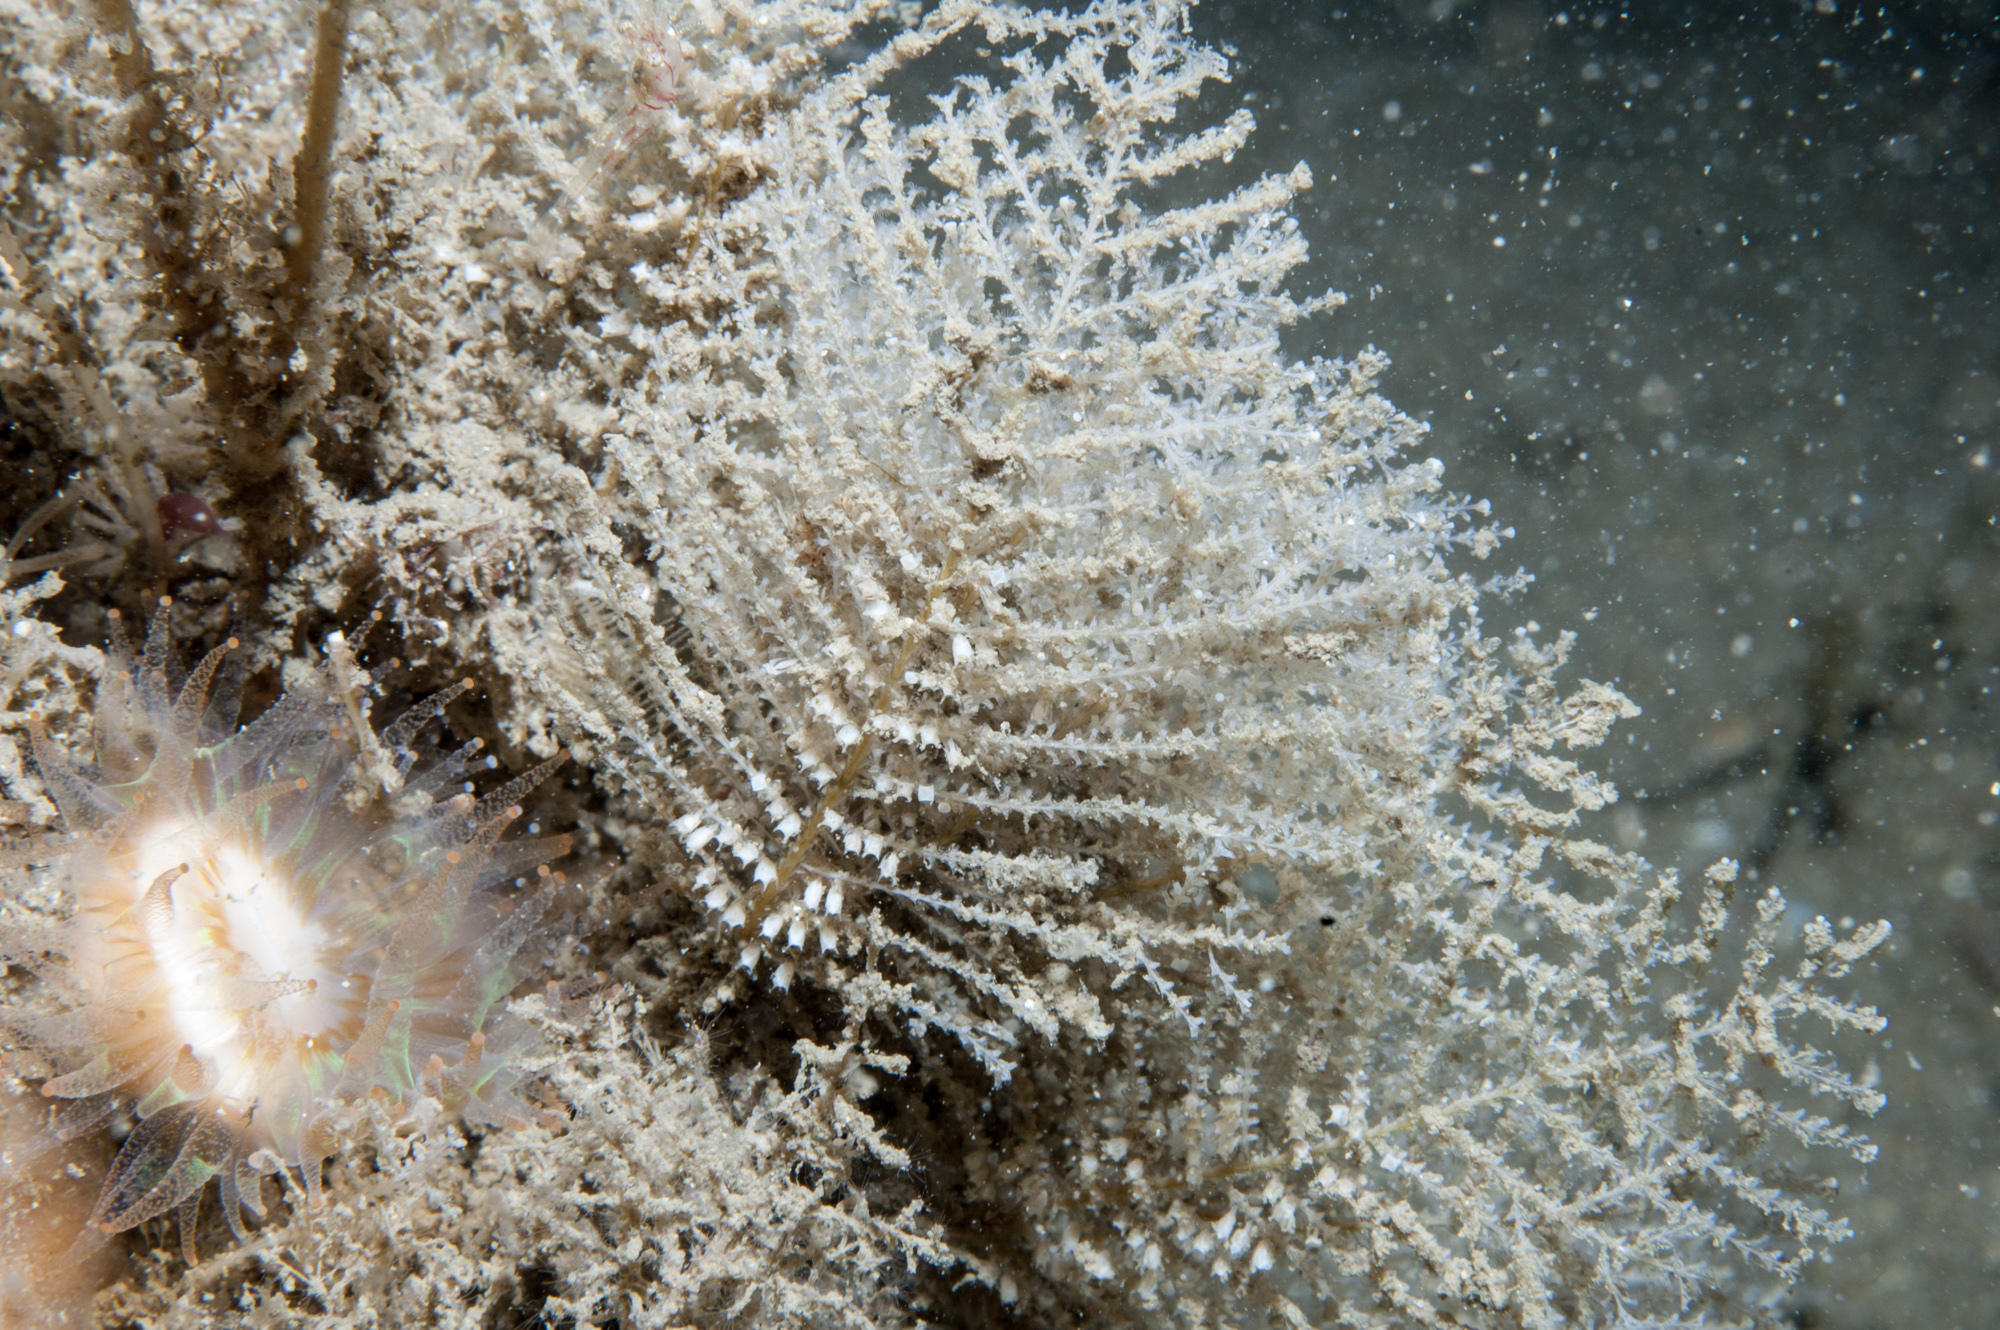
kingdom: Animalia
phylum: Cnidaria
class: Hydrozoa
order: Leptothecata
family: Sertulariidae
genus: Diphasia
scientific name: Diphasia margareta
